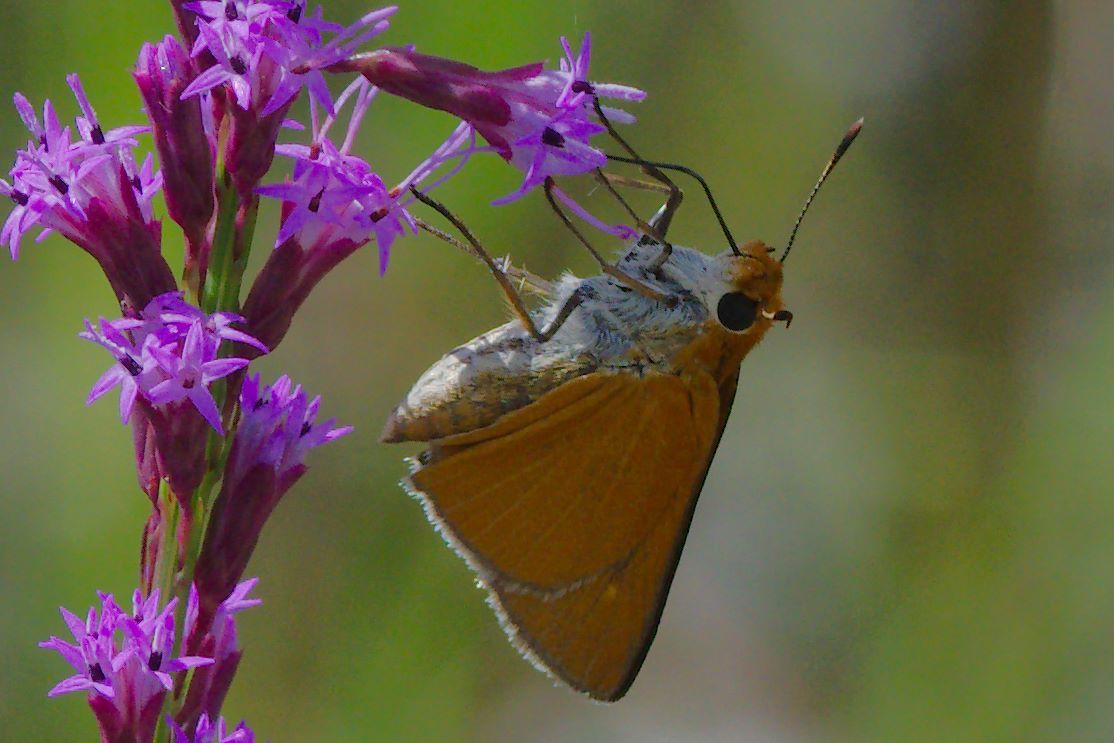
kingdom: Animalia
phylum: Arthropoda
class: Insecta
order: Lepidoptera
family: Hesperiidae
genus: Euphyes
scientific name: Euphyes arpa
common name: Palmetto skipper
